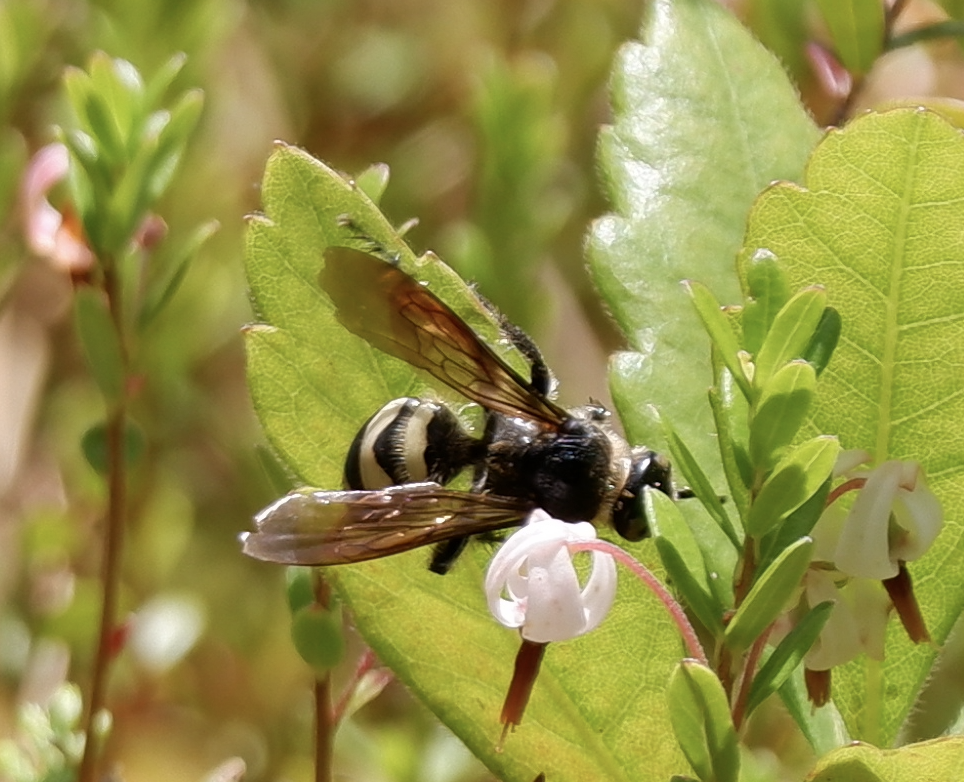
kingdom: Animalia
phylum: Arthropoda
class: Insecta
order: Hymenoptera
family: Scoliidae
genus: Dielis
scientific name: Dielis
